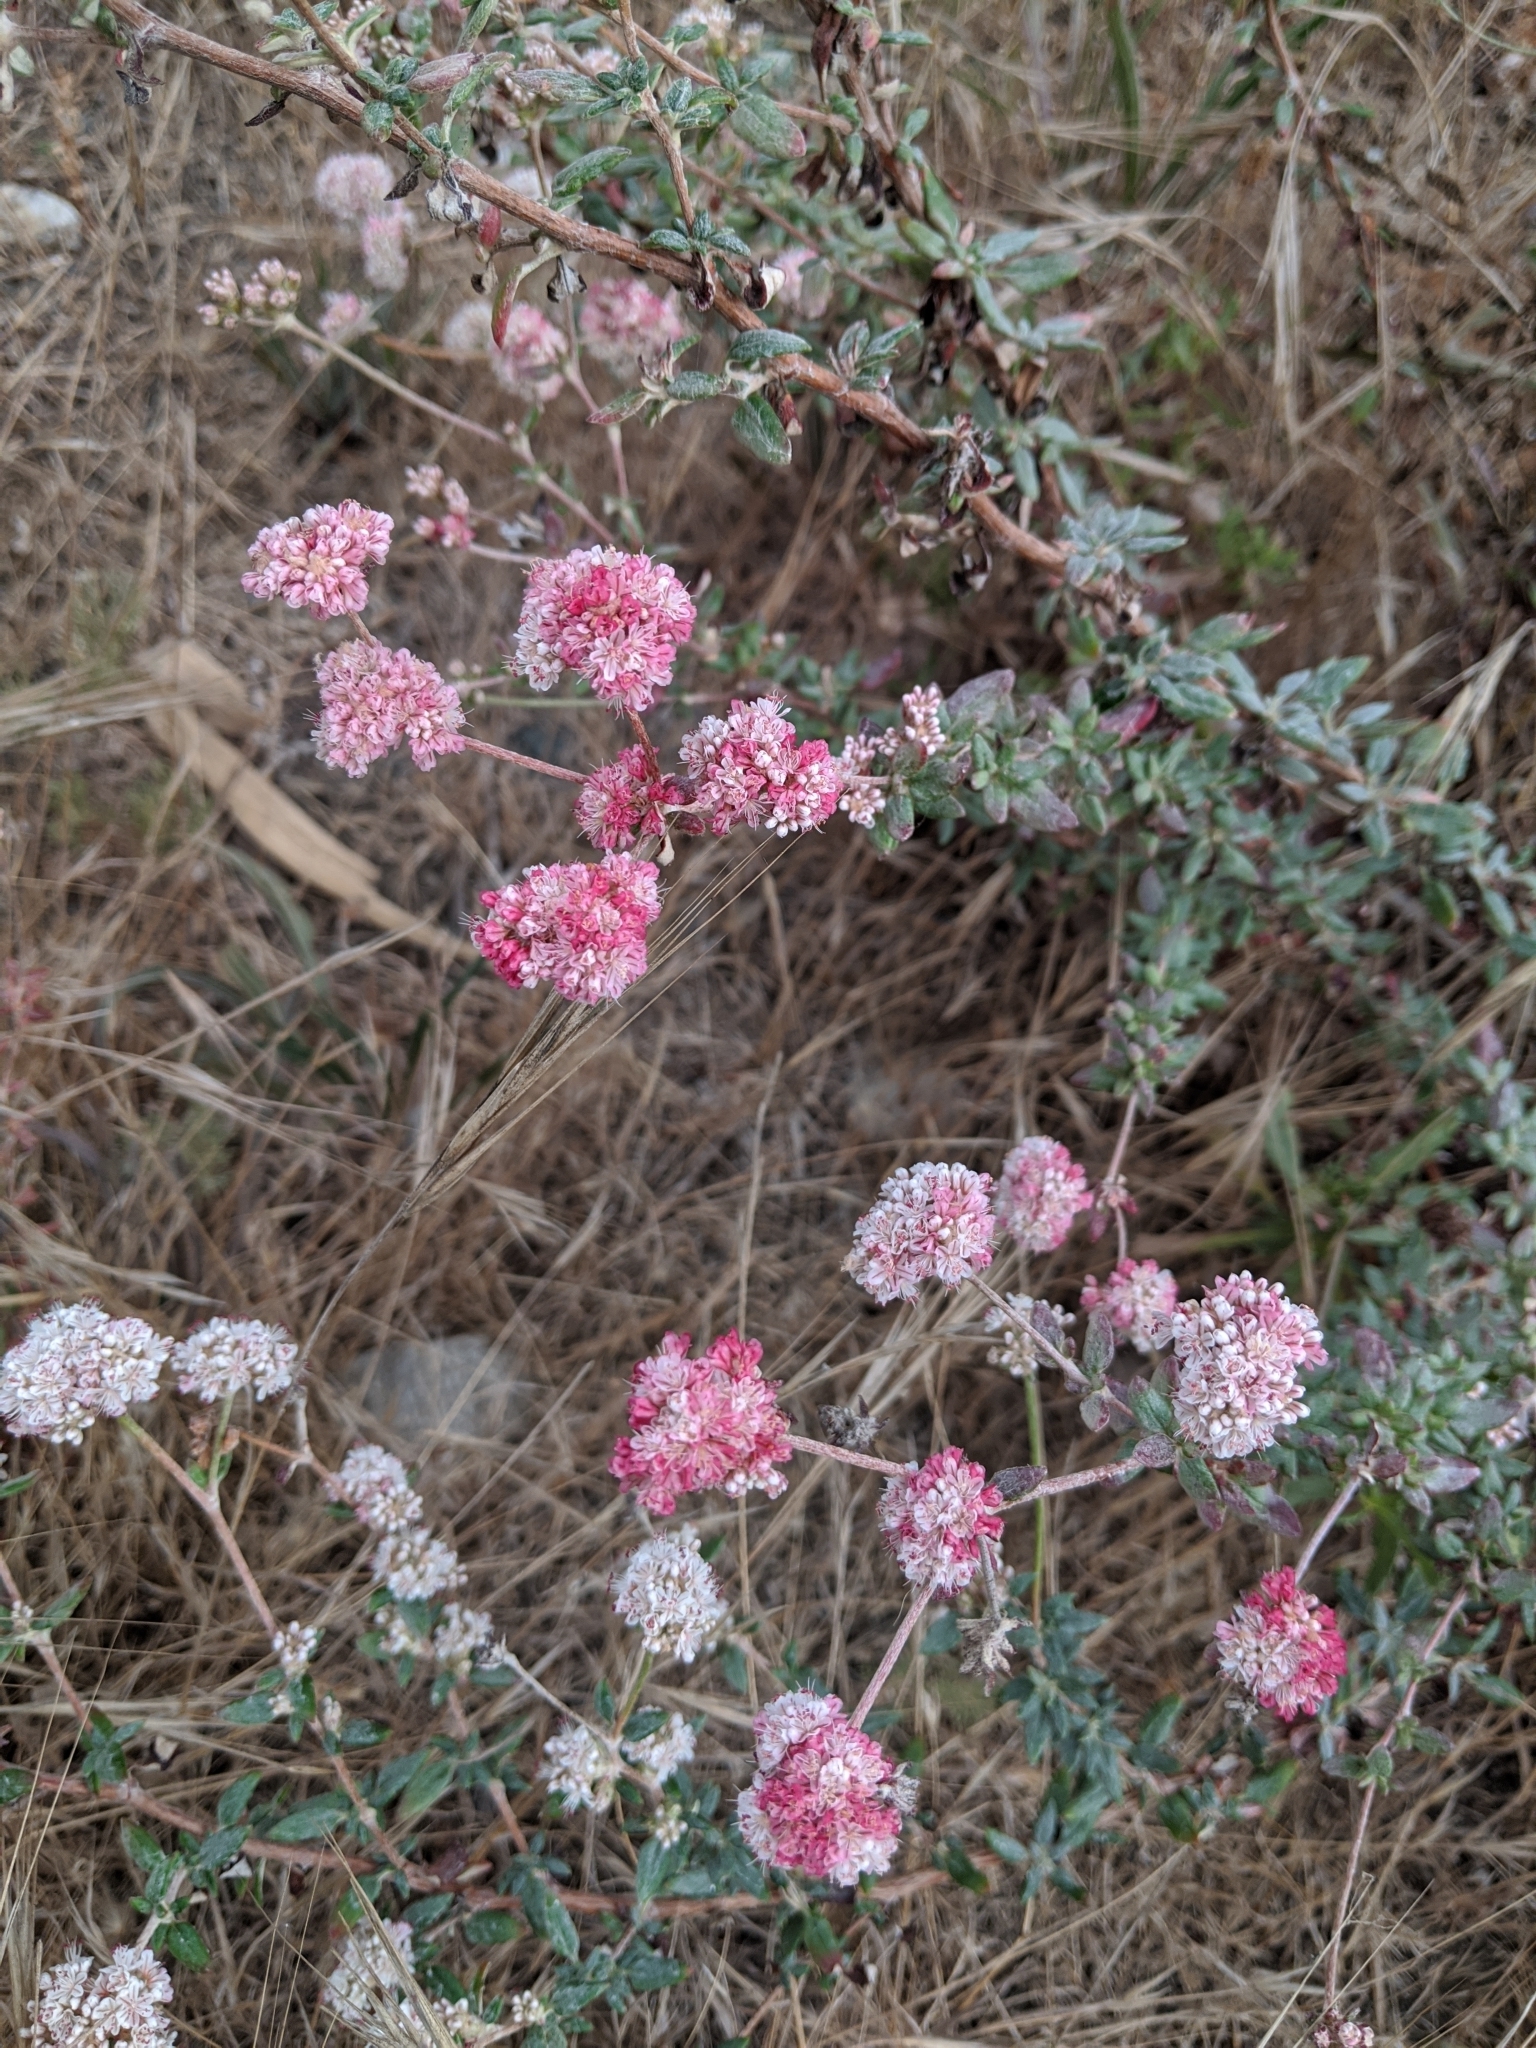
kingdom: Plantae
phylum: Tracheophyta
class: Magnoliopsida
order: Caryophyllales
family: Polygonaceae
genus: Eriogonum
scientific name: Eriogonum parvifolium
